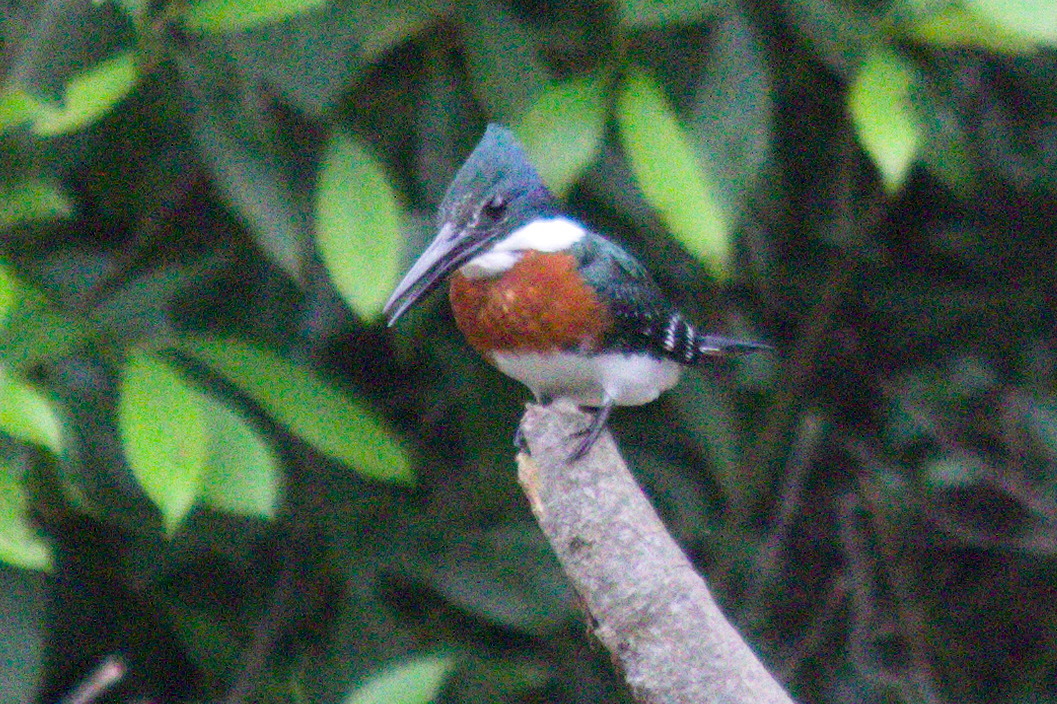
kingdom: Animalia
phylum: Chordata
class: Aves
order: Coraciiformes
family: Alcedinidae
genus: Chloroceryle
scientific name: Chloroceryle americana
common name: Green kingfisher
